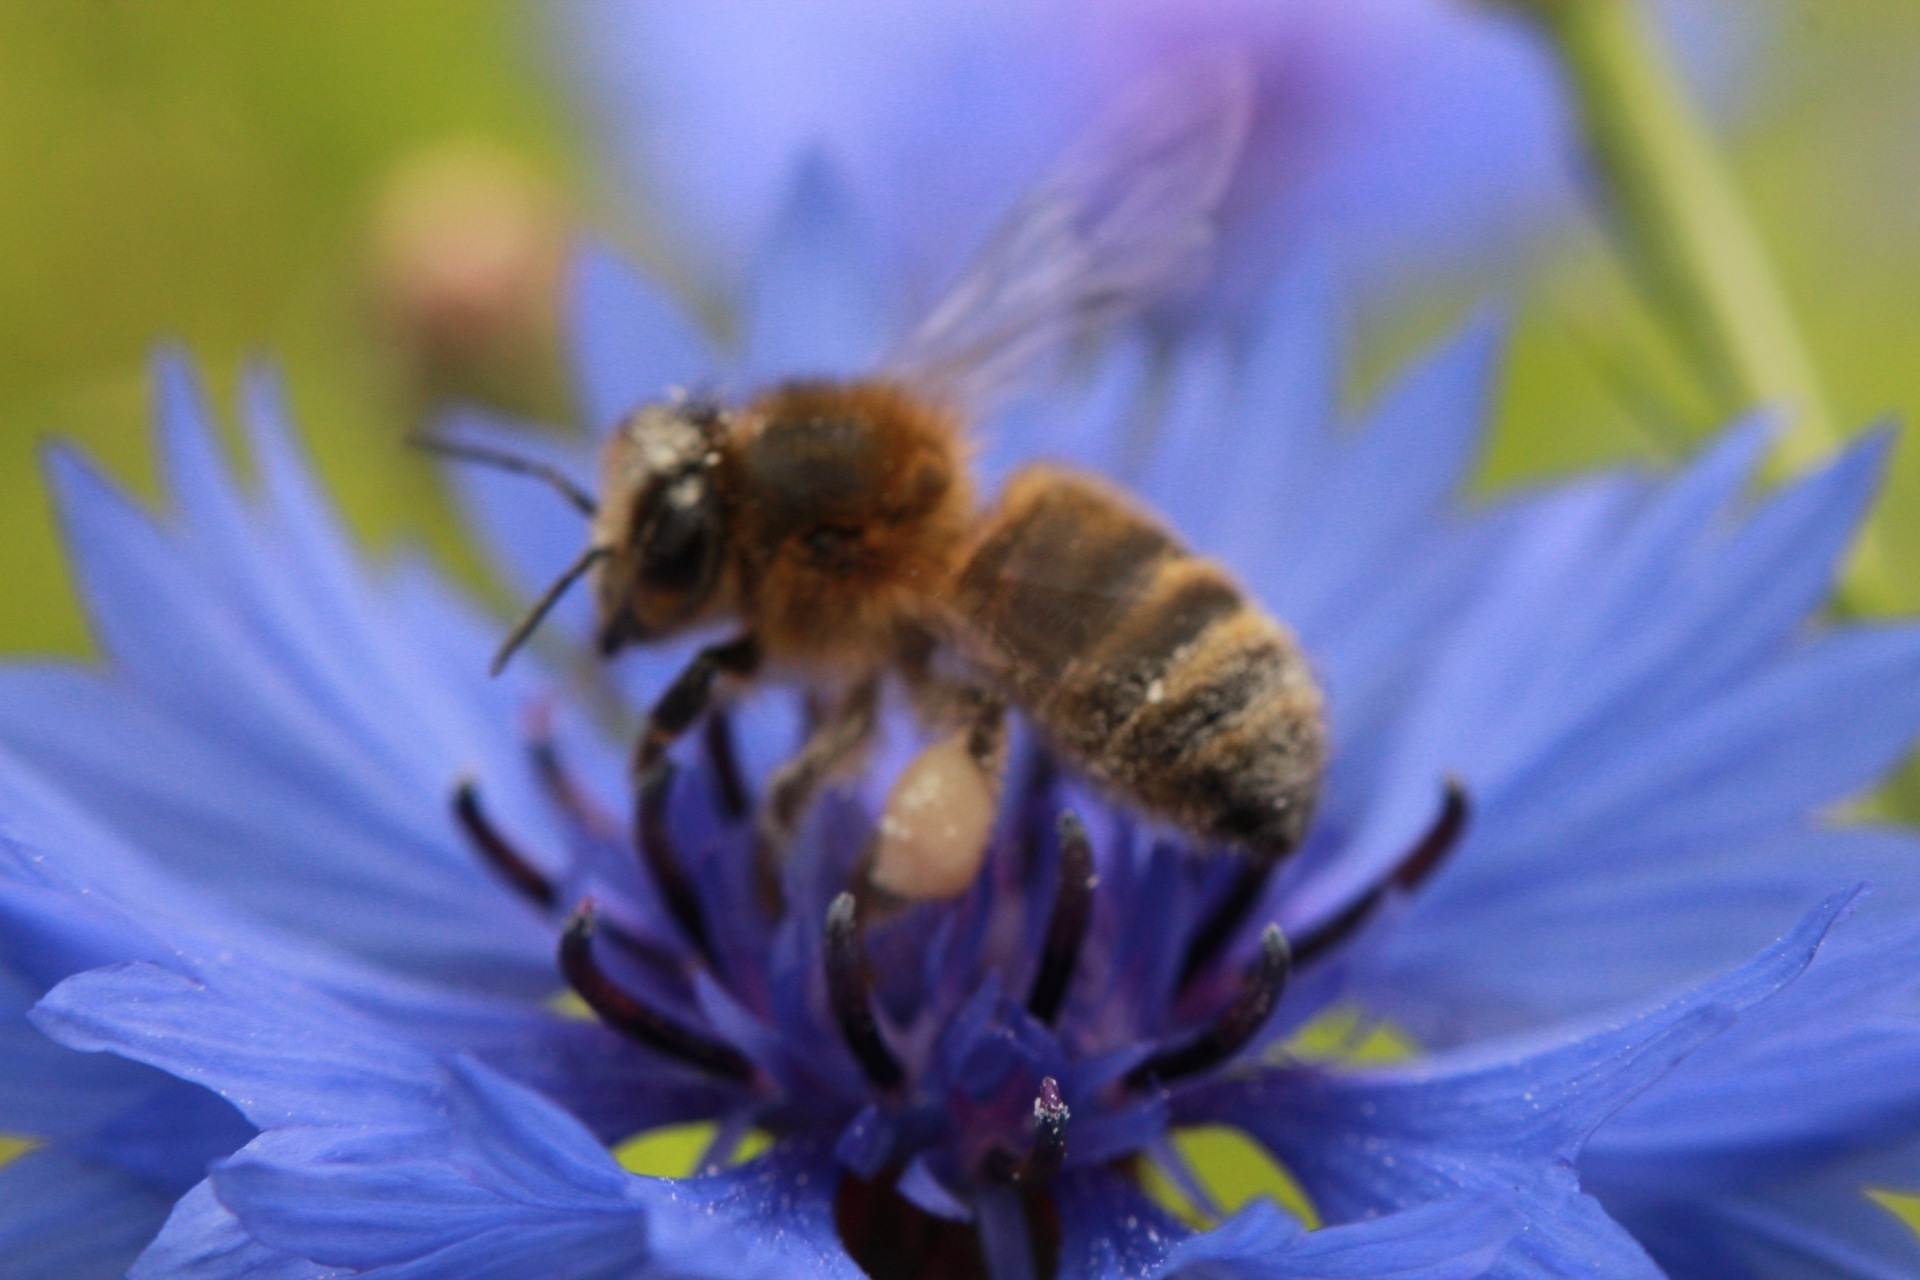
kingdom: Animalia
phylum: Arthropoda
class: Insecta
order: Hymenoptera
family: Apidae
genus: Apis
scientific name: Apis mellifera
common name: Honey bee
